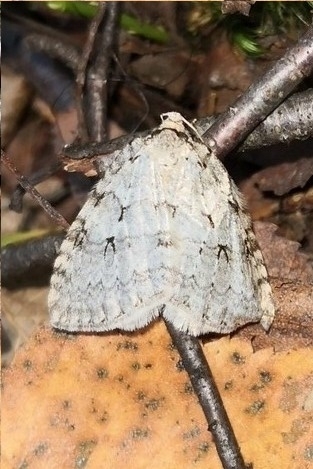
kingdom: Animalia
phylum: Arthropoda
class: Insecta
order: Lepidoptera
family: Geometridae
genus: Epirrita
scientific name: Epirrita autumnata
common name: Autumnal moth
